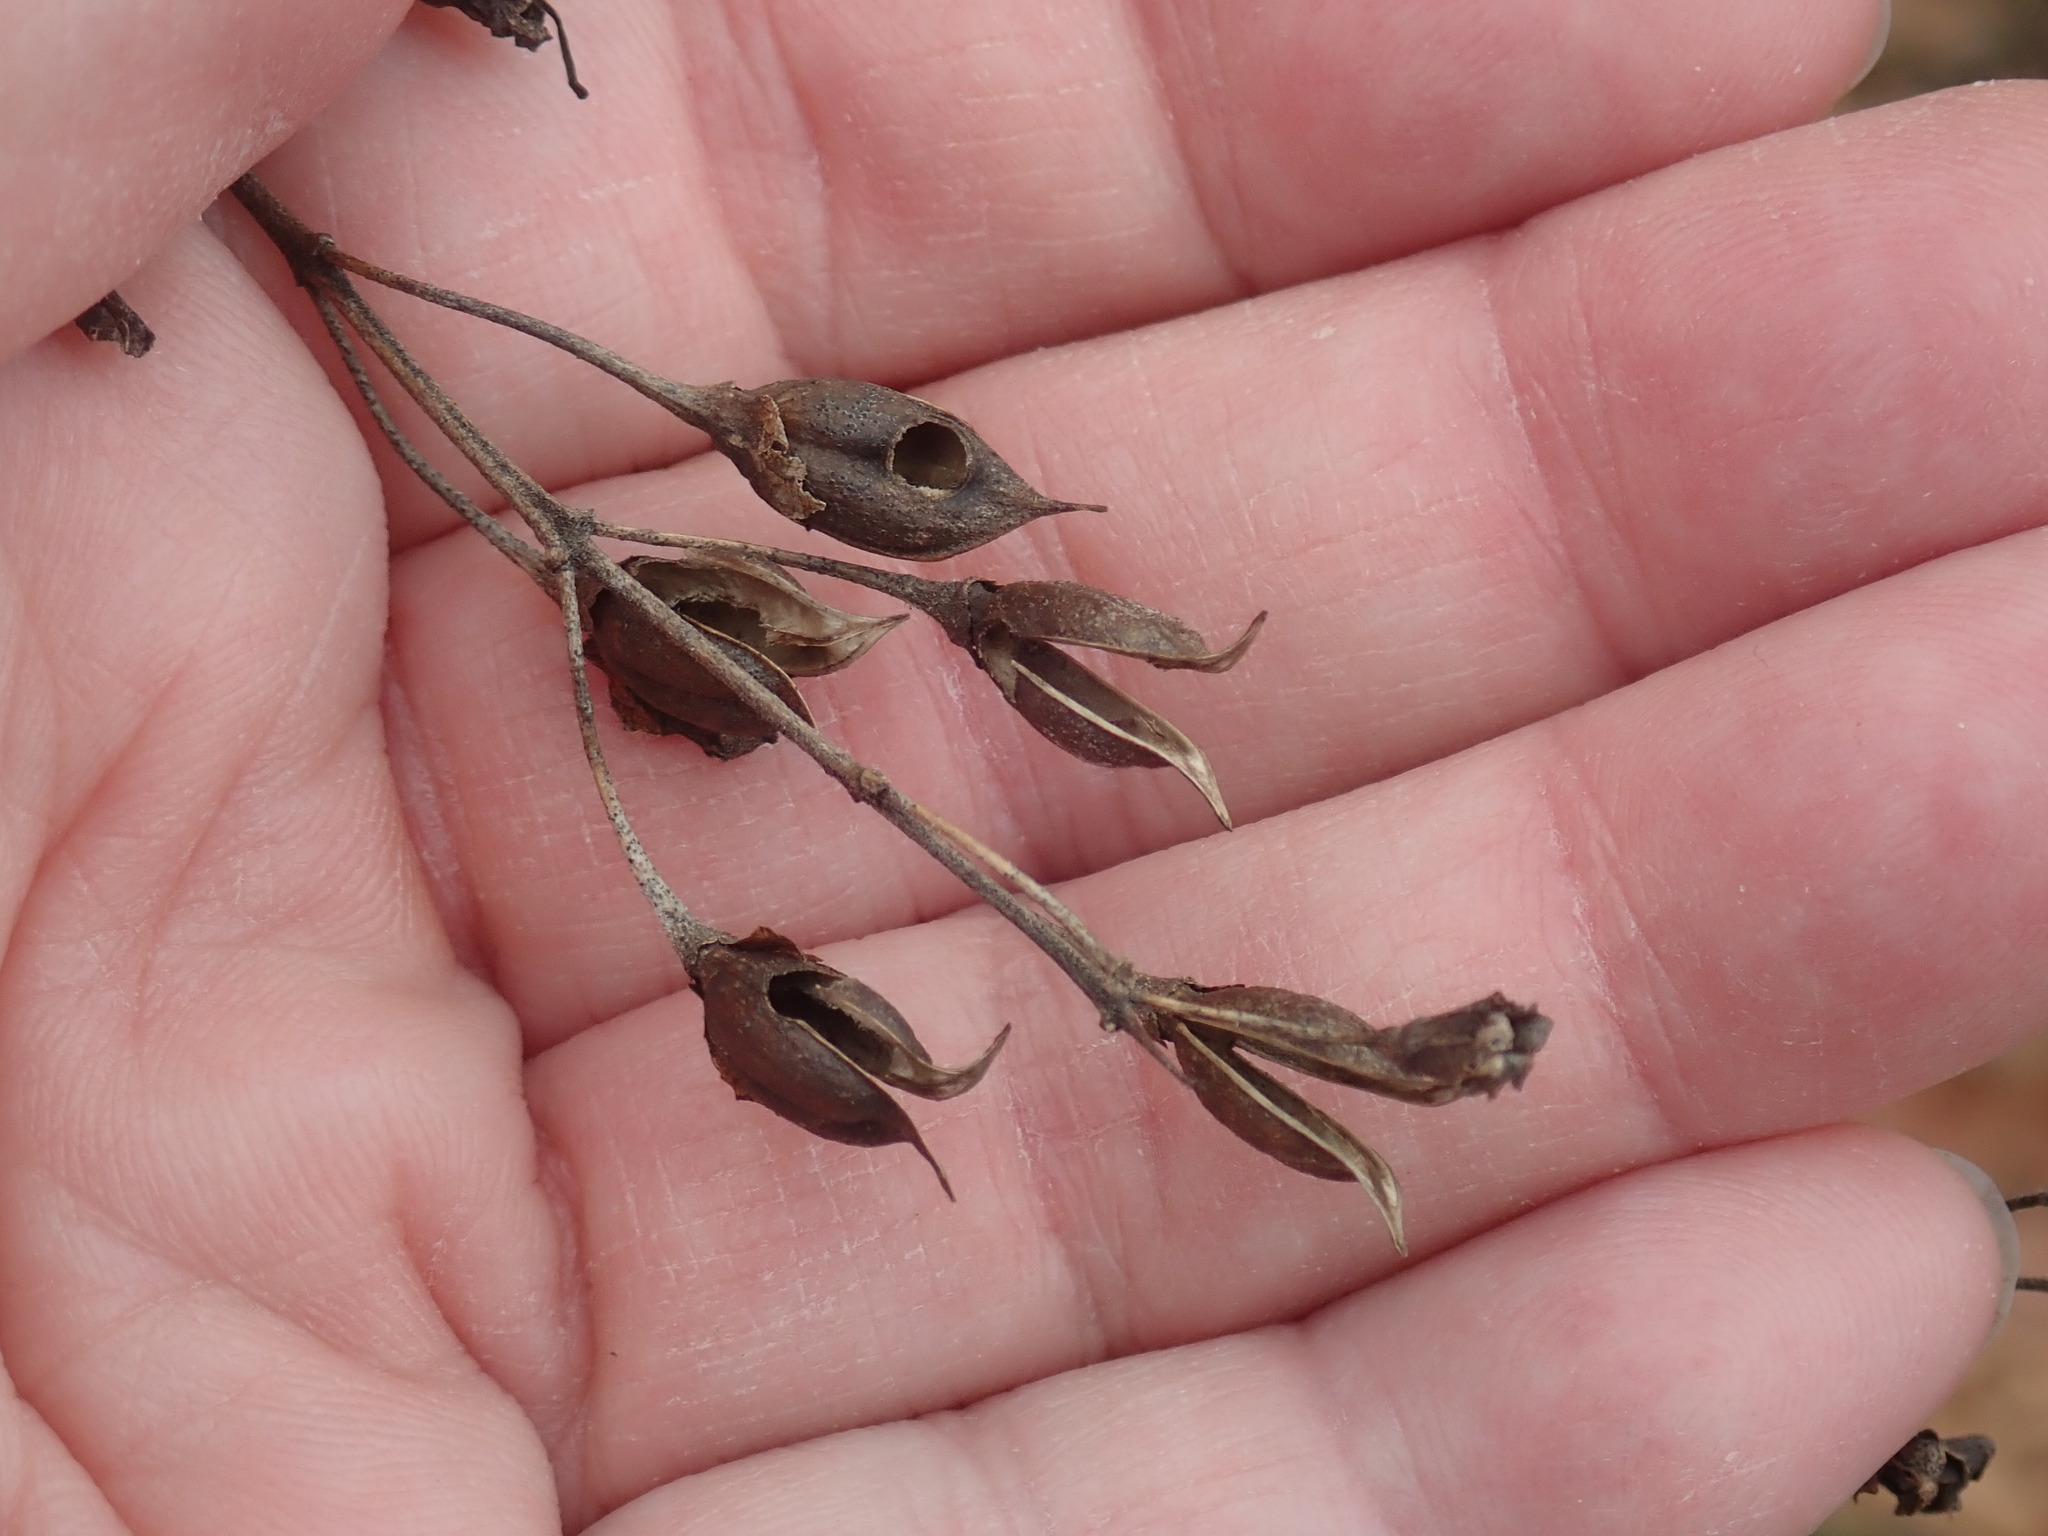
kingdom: Plantae
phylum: Tracheophyta
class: Magnoliopsida
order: Lamiales
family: Orobanchaceae
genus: Aureolaria
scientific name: Aureolaria pedicularia
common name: Annual false foxglove
